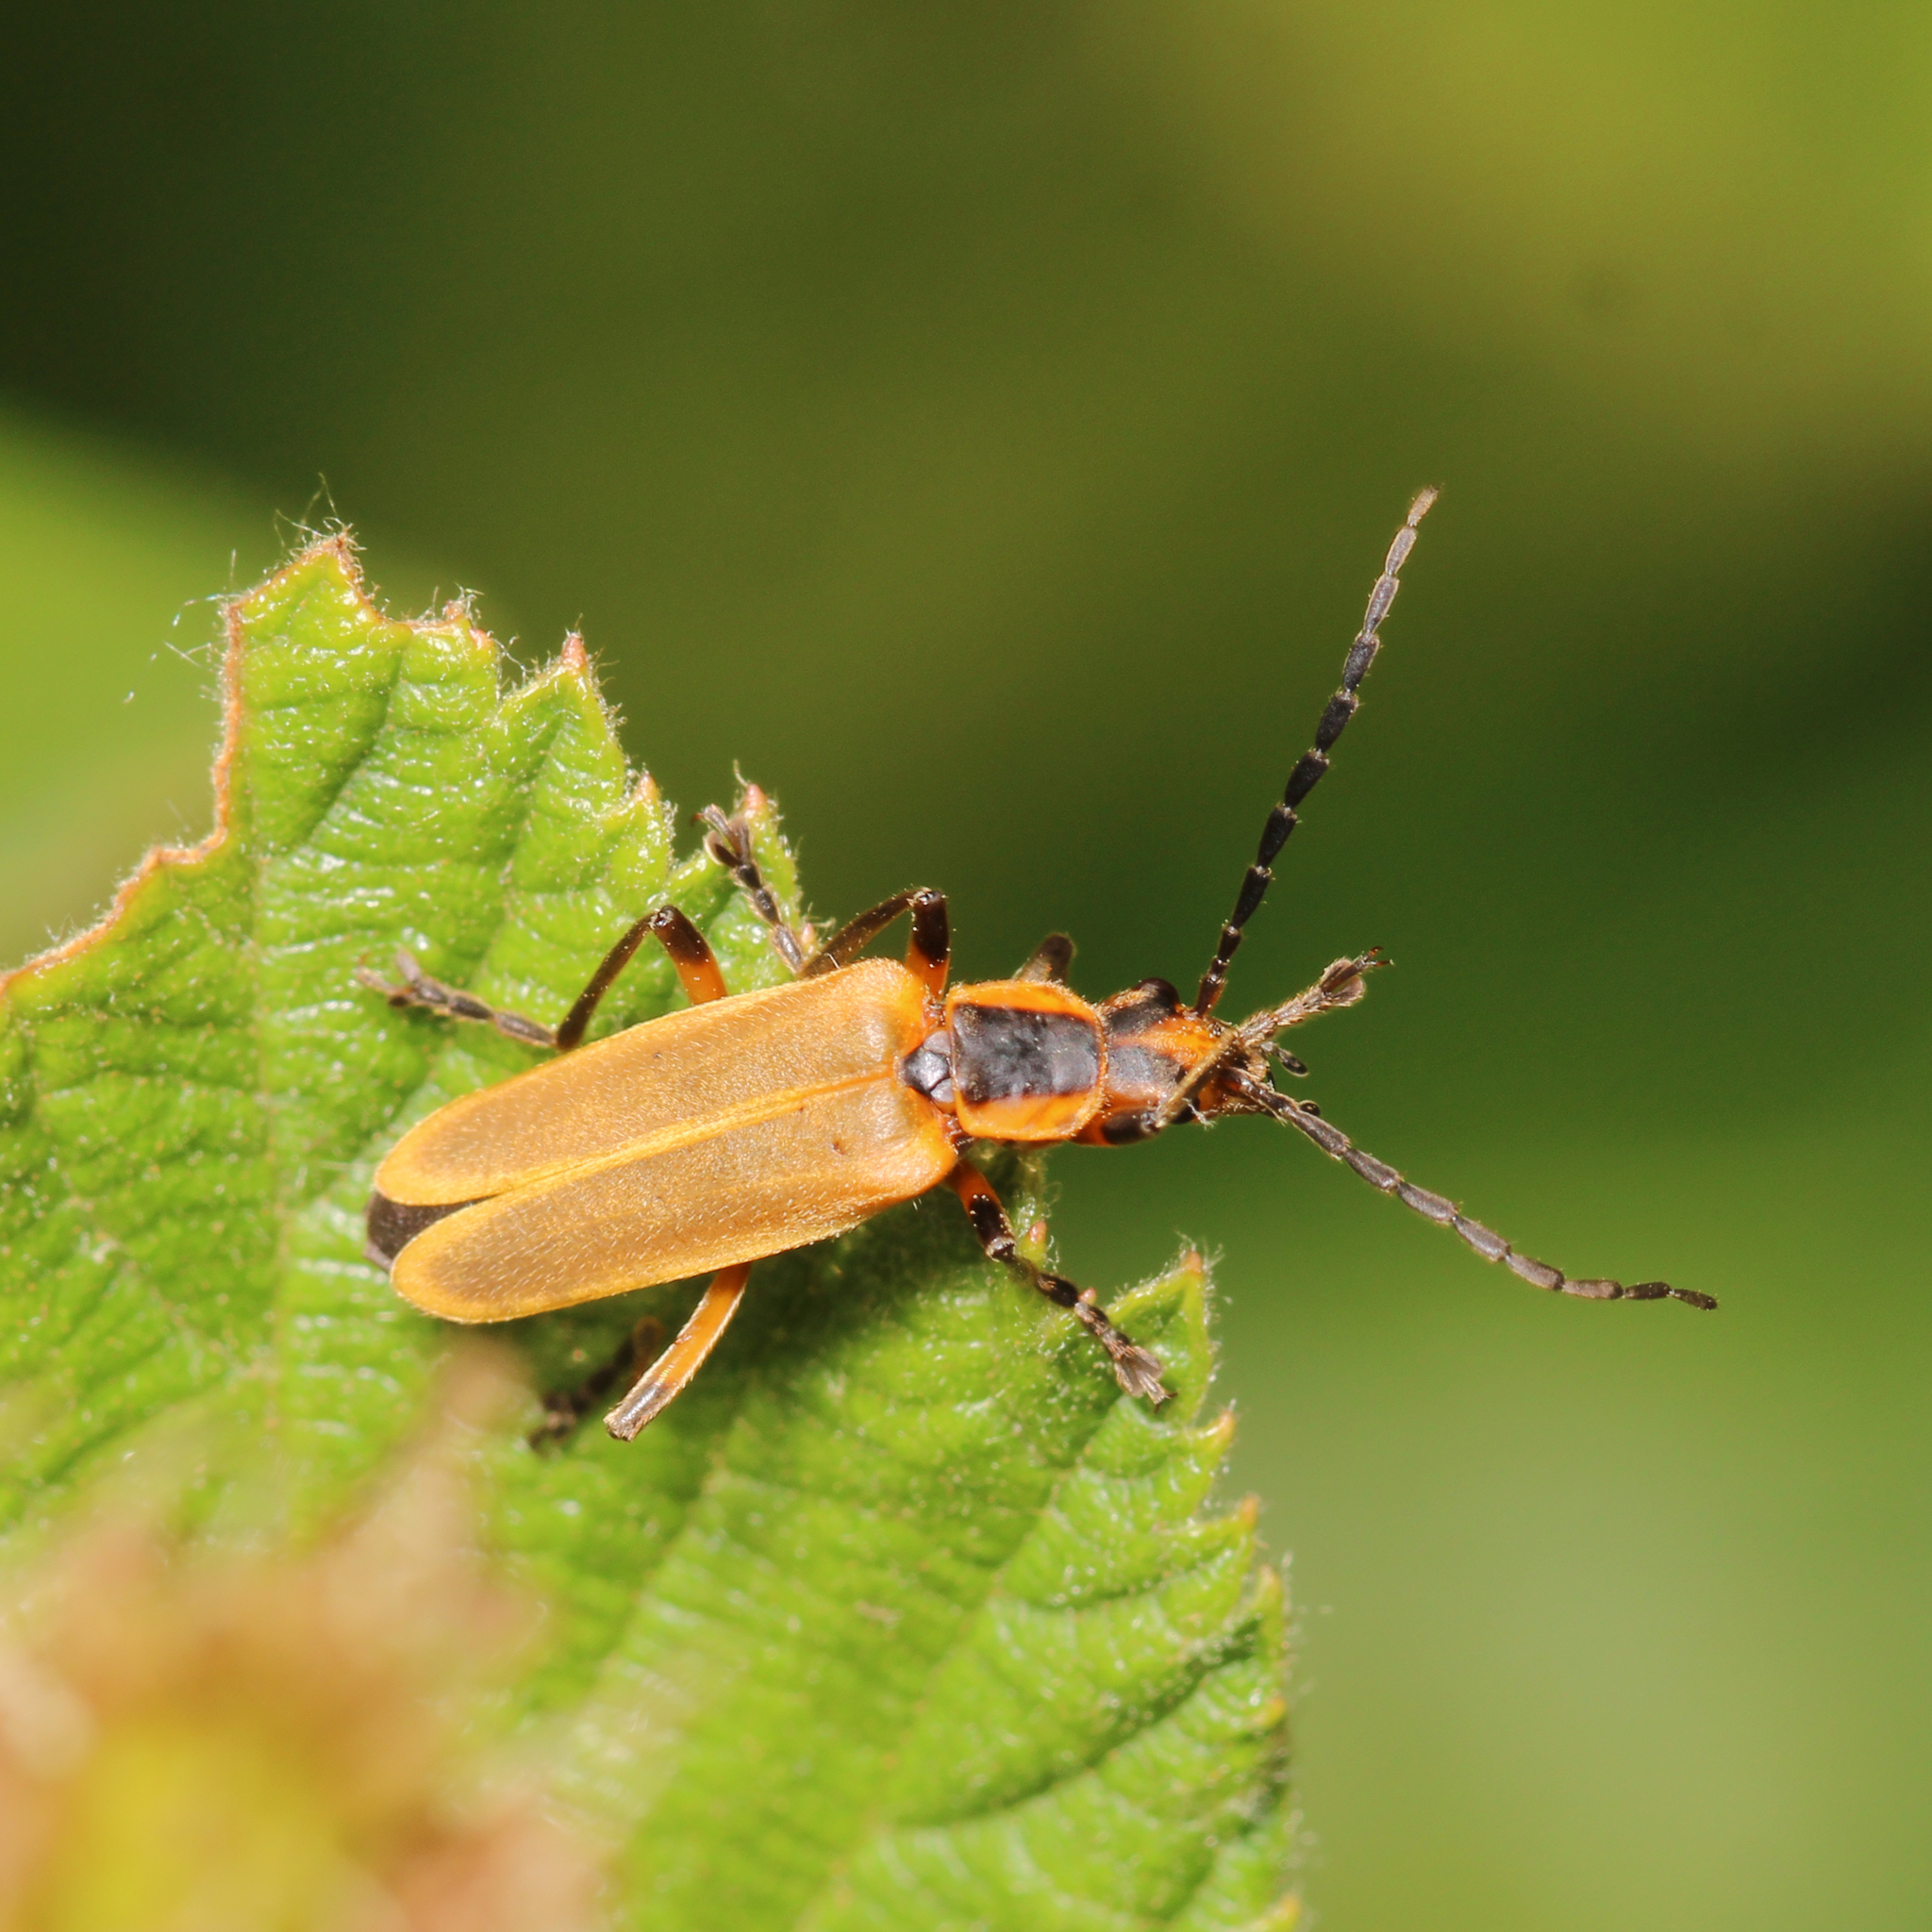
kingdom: Animalia
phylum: Arthropoda
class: Insecta
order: Coleoptera
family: Cantharidae
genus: Chauliognathus
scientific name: Chauliognathus marginatus
